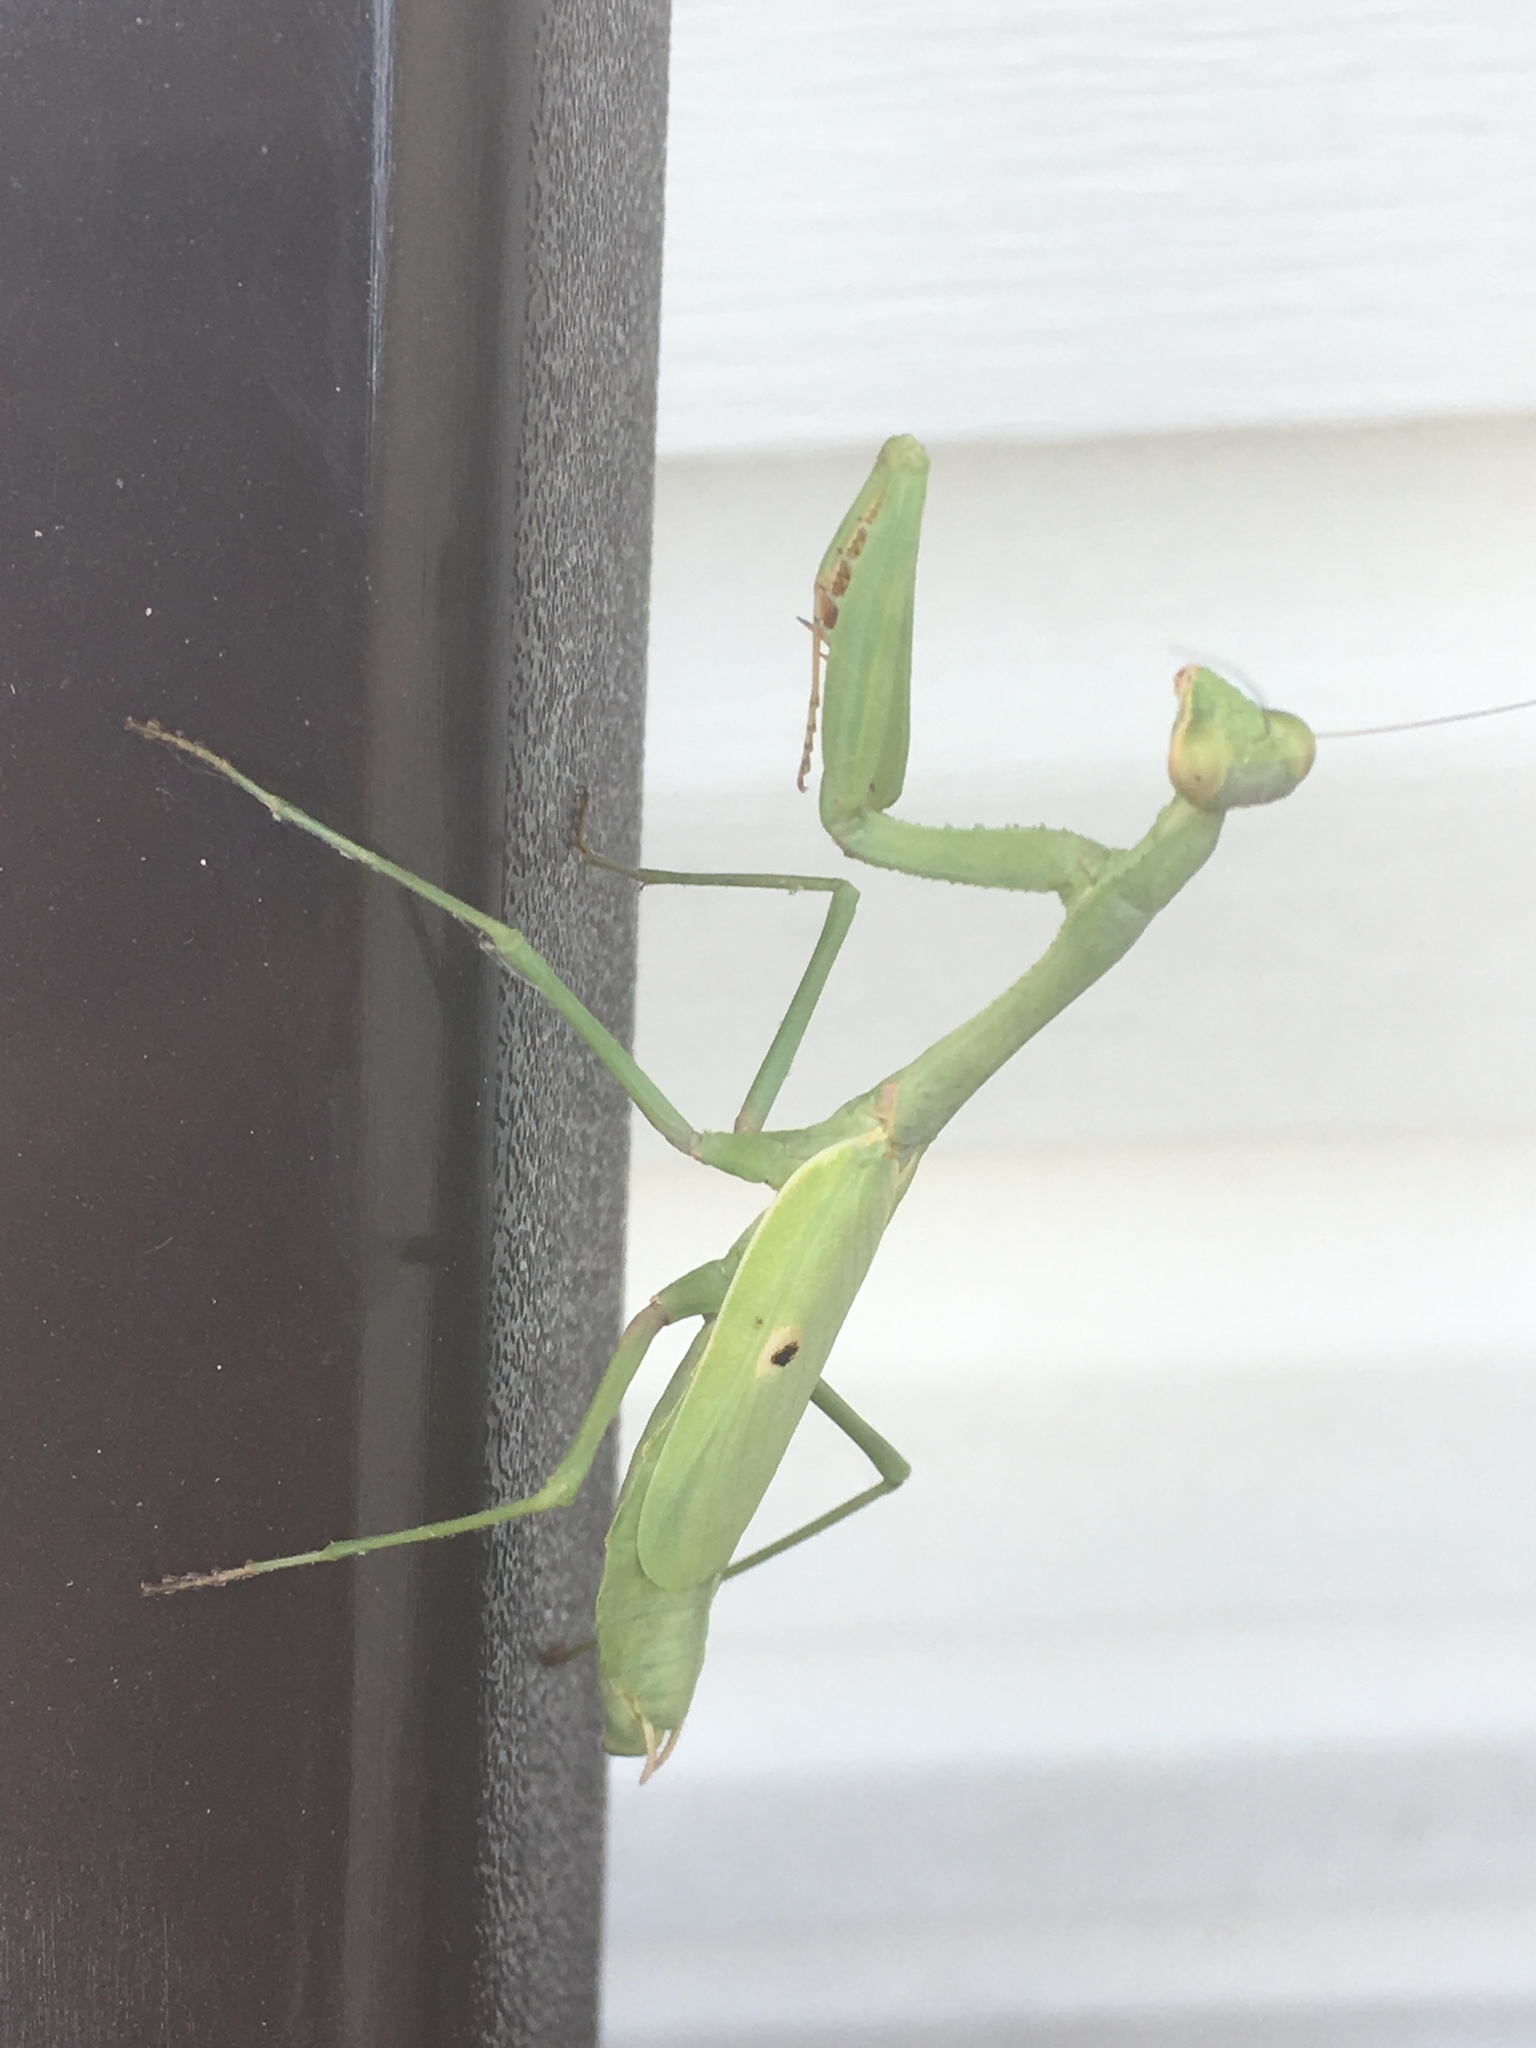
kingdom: Animalia
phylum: Arthropoda
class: Insecta
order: Mantodea
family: Mantidae
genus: Stagmomantis
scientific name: Stagmomantis carolina
